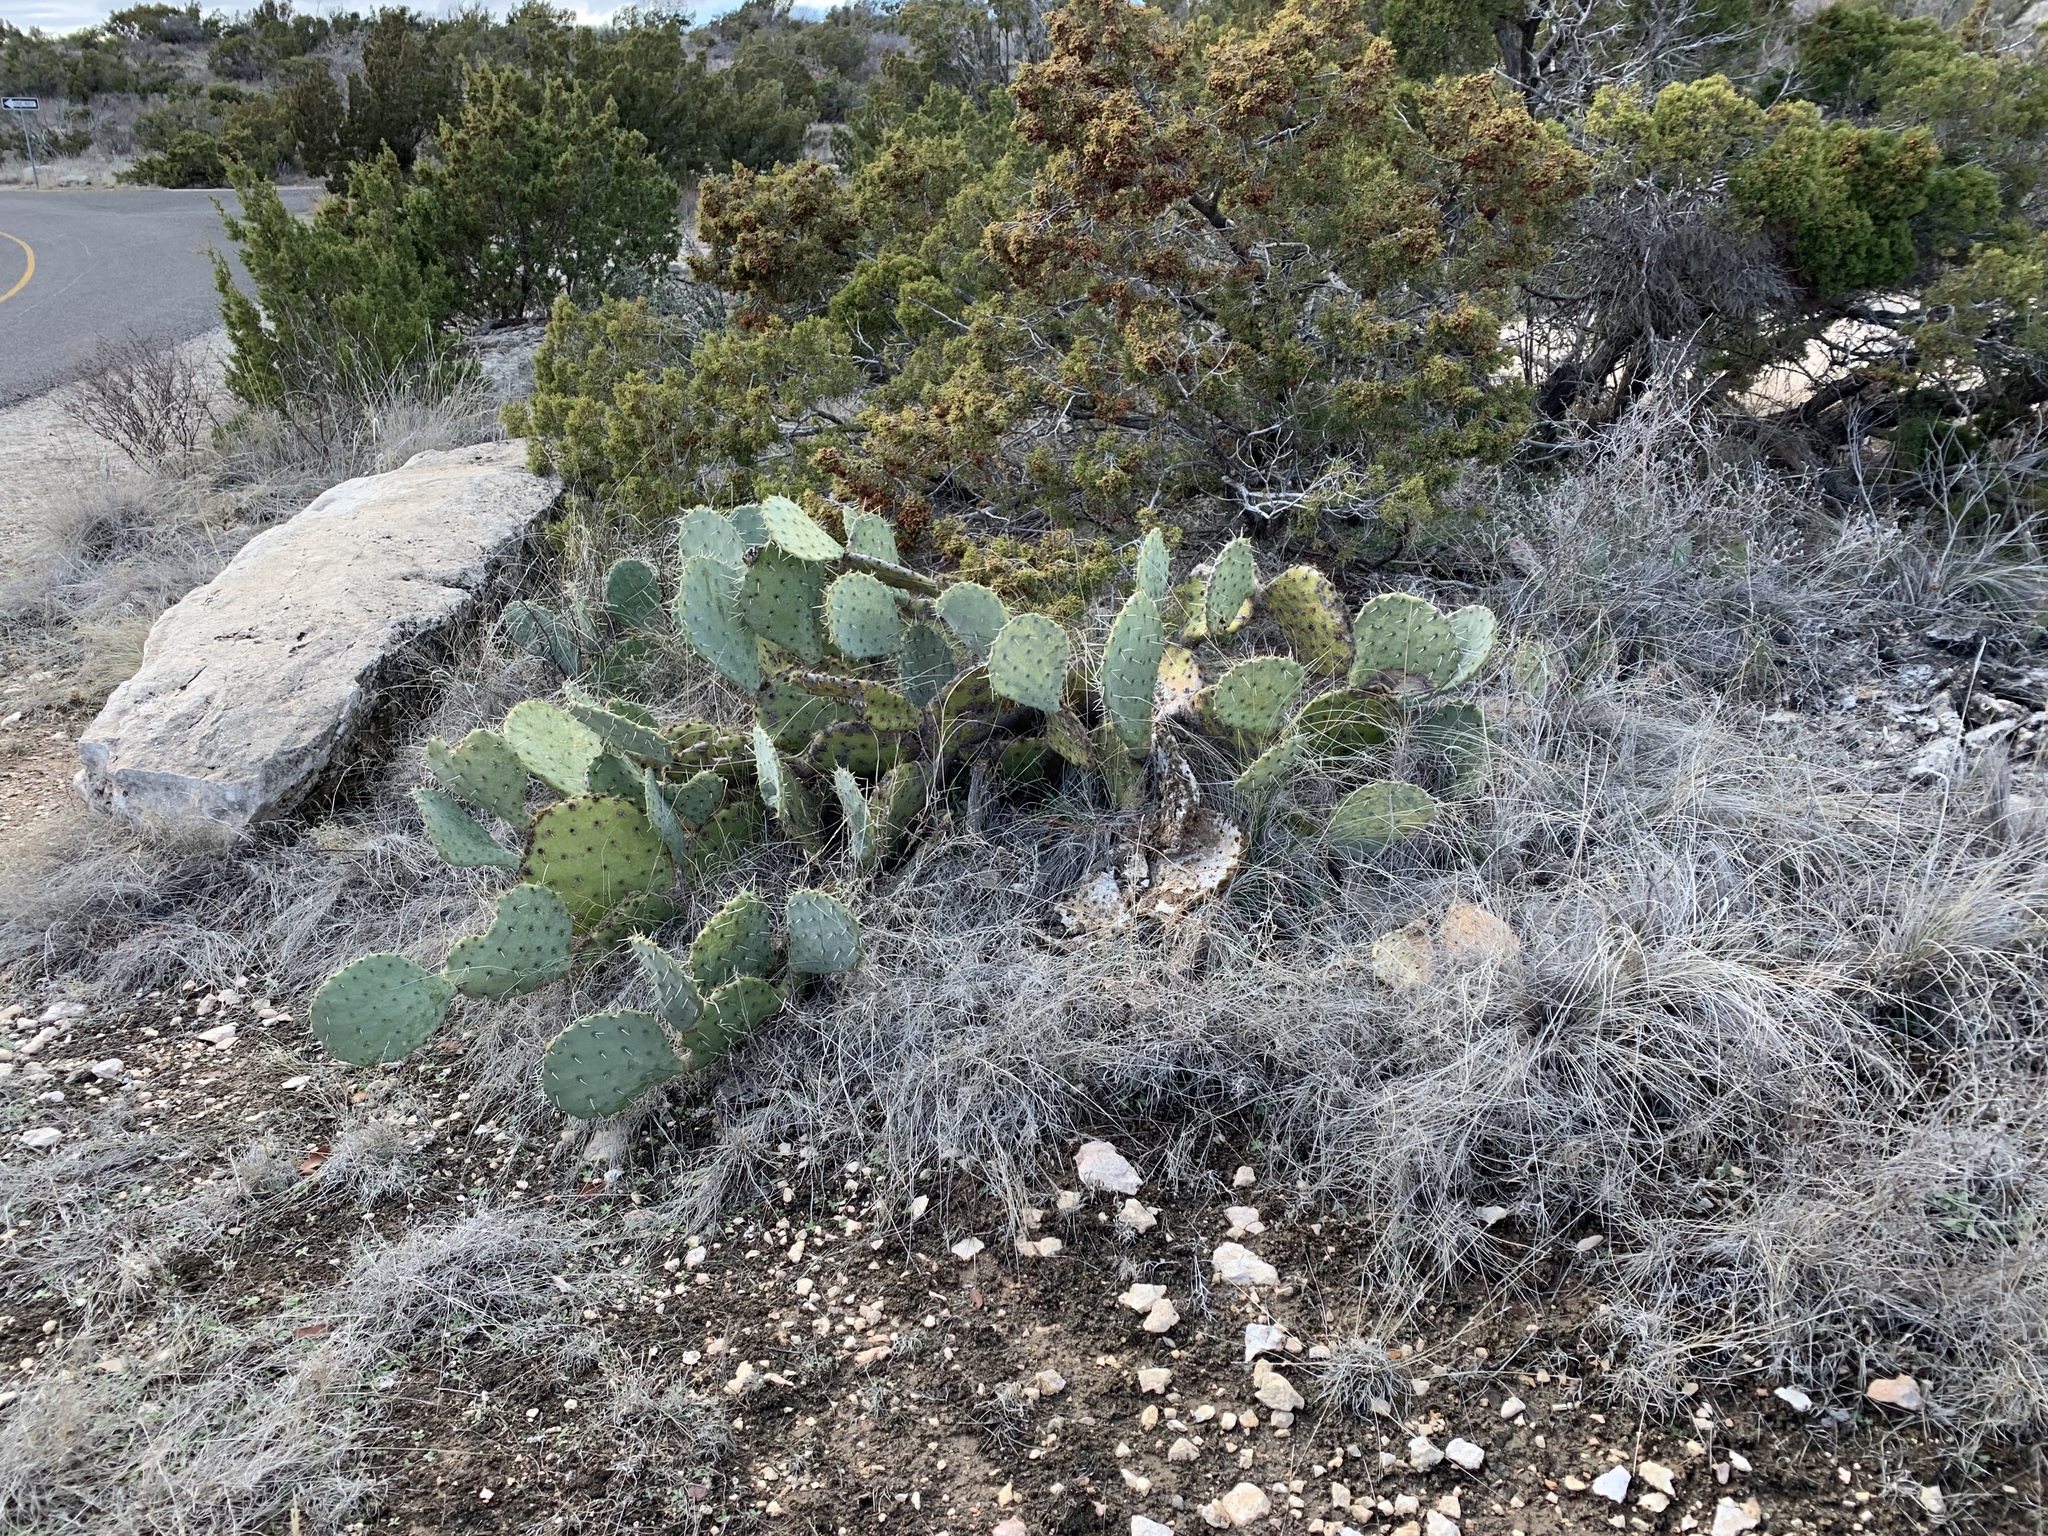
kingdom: Plantae
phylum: Tracheophyta
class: Magnoliopsida
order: Caryophyllales
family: Cactaceae
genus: Opuntia
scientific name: Opuntia engelmannii
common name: Cactus-apple
